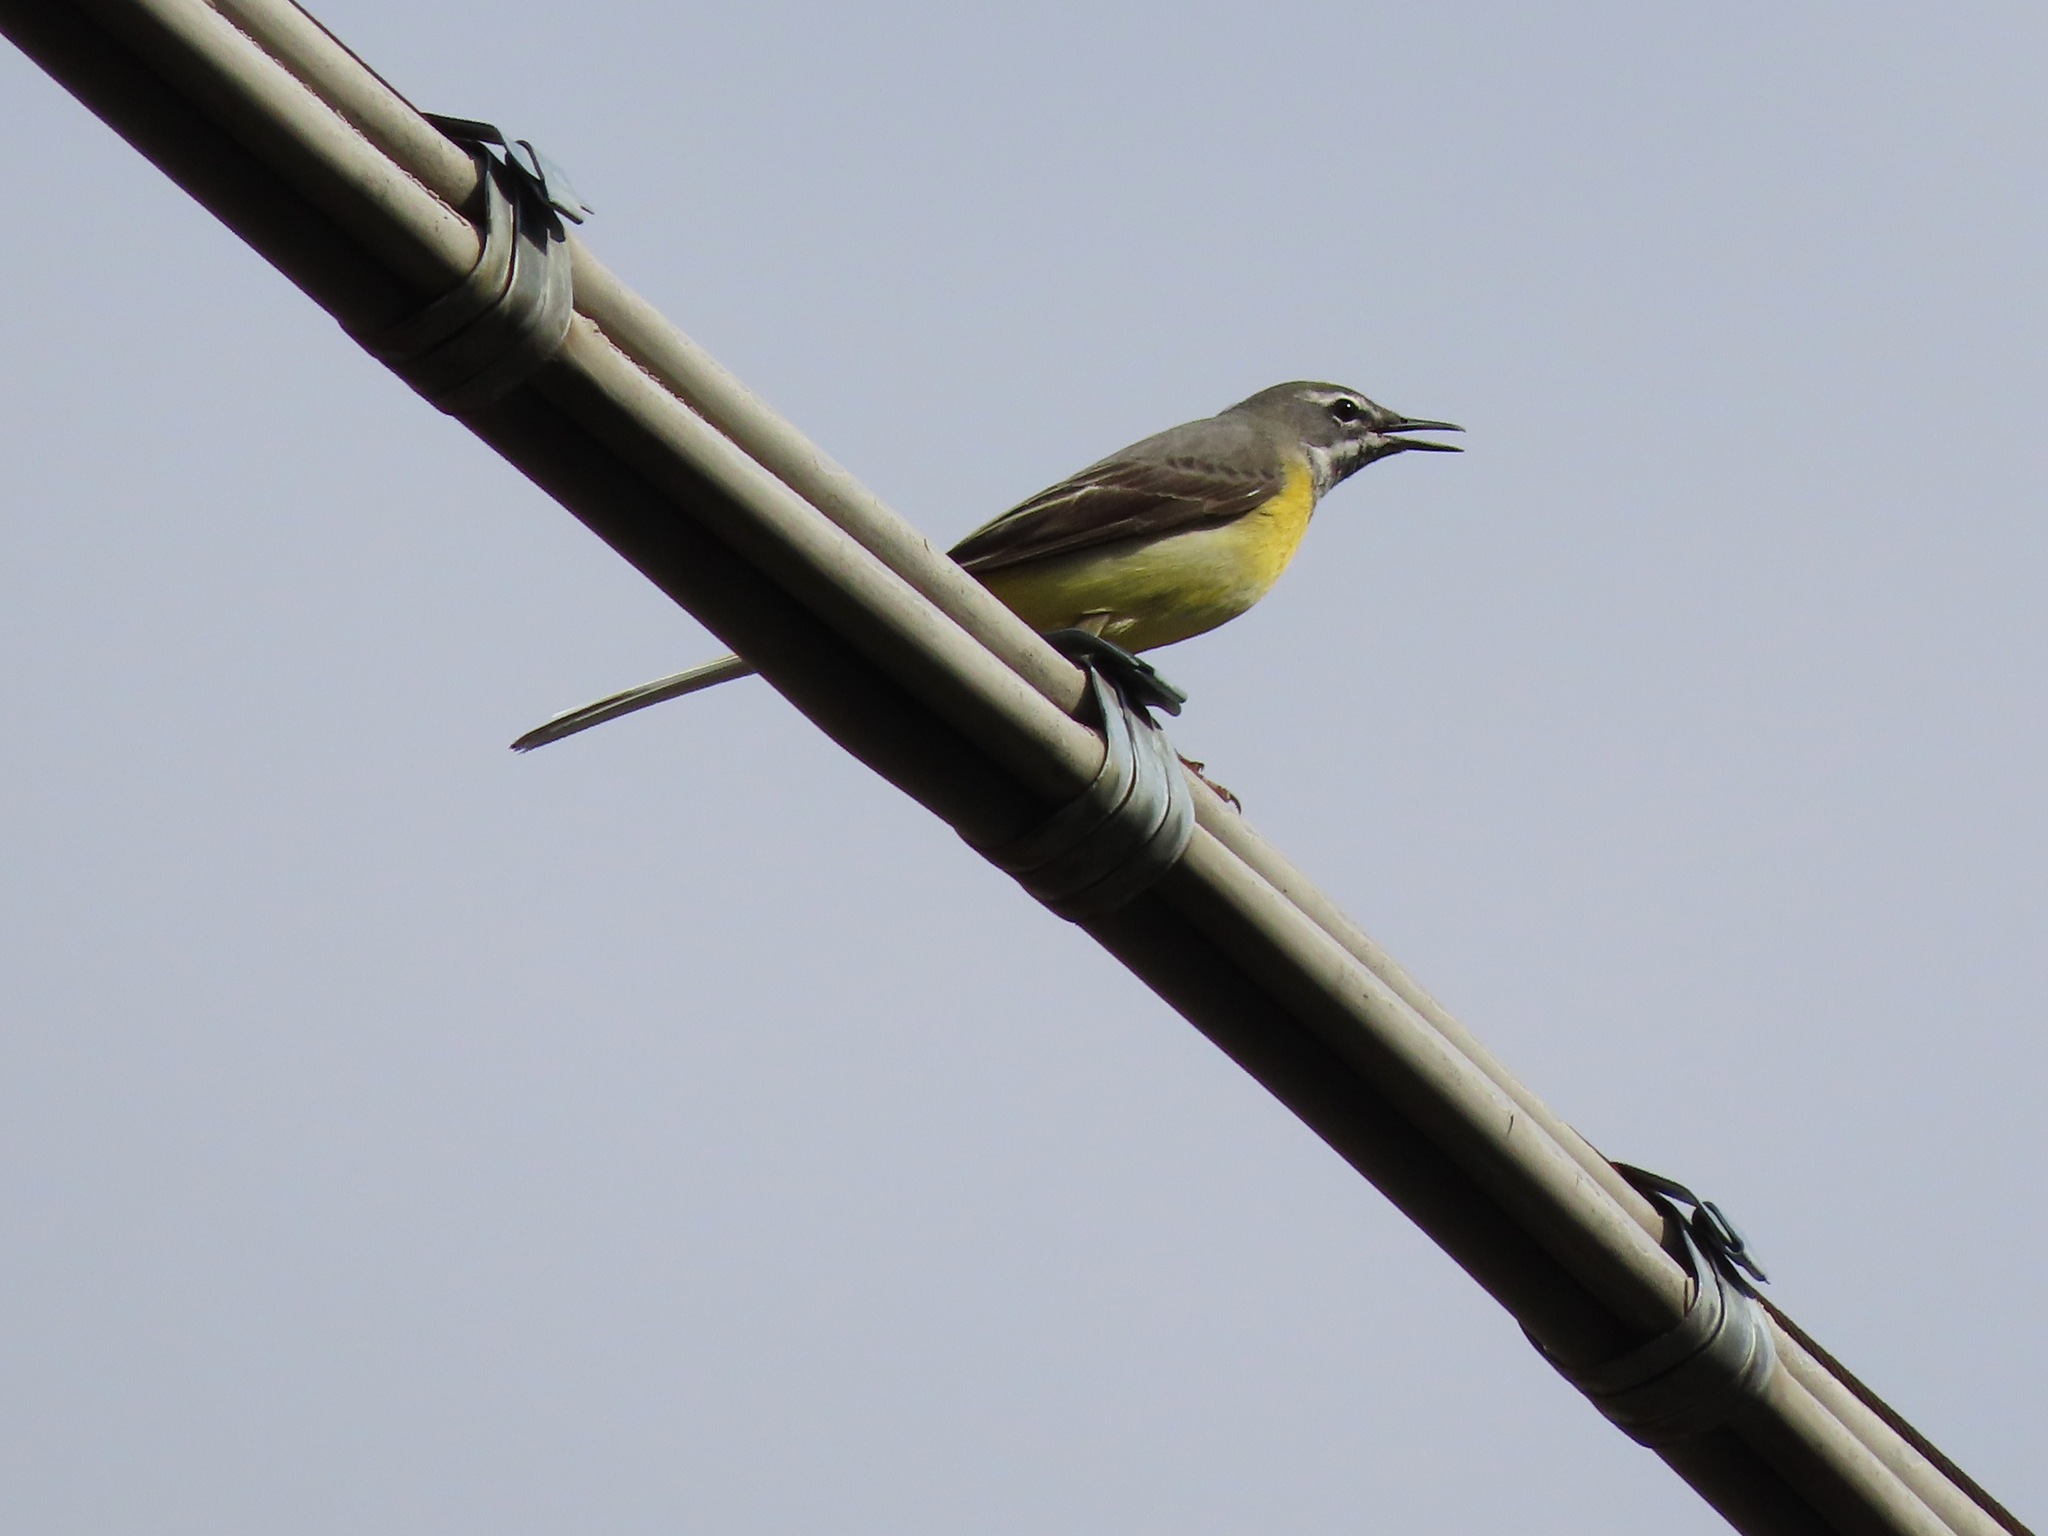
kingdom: Animalia
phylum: Chordata
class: Aves
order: Passeriformes
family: Motacillidae
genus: Motacilla
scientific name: Motacilla cinerea
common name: Grey wagtail
